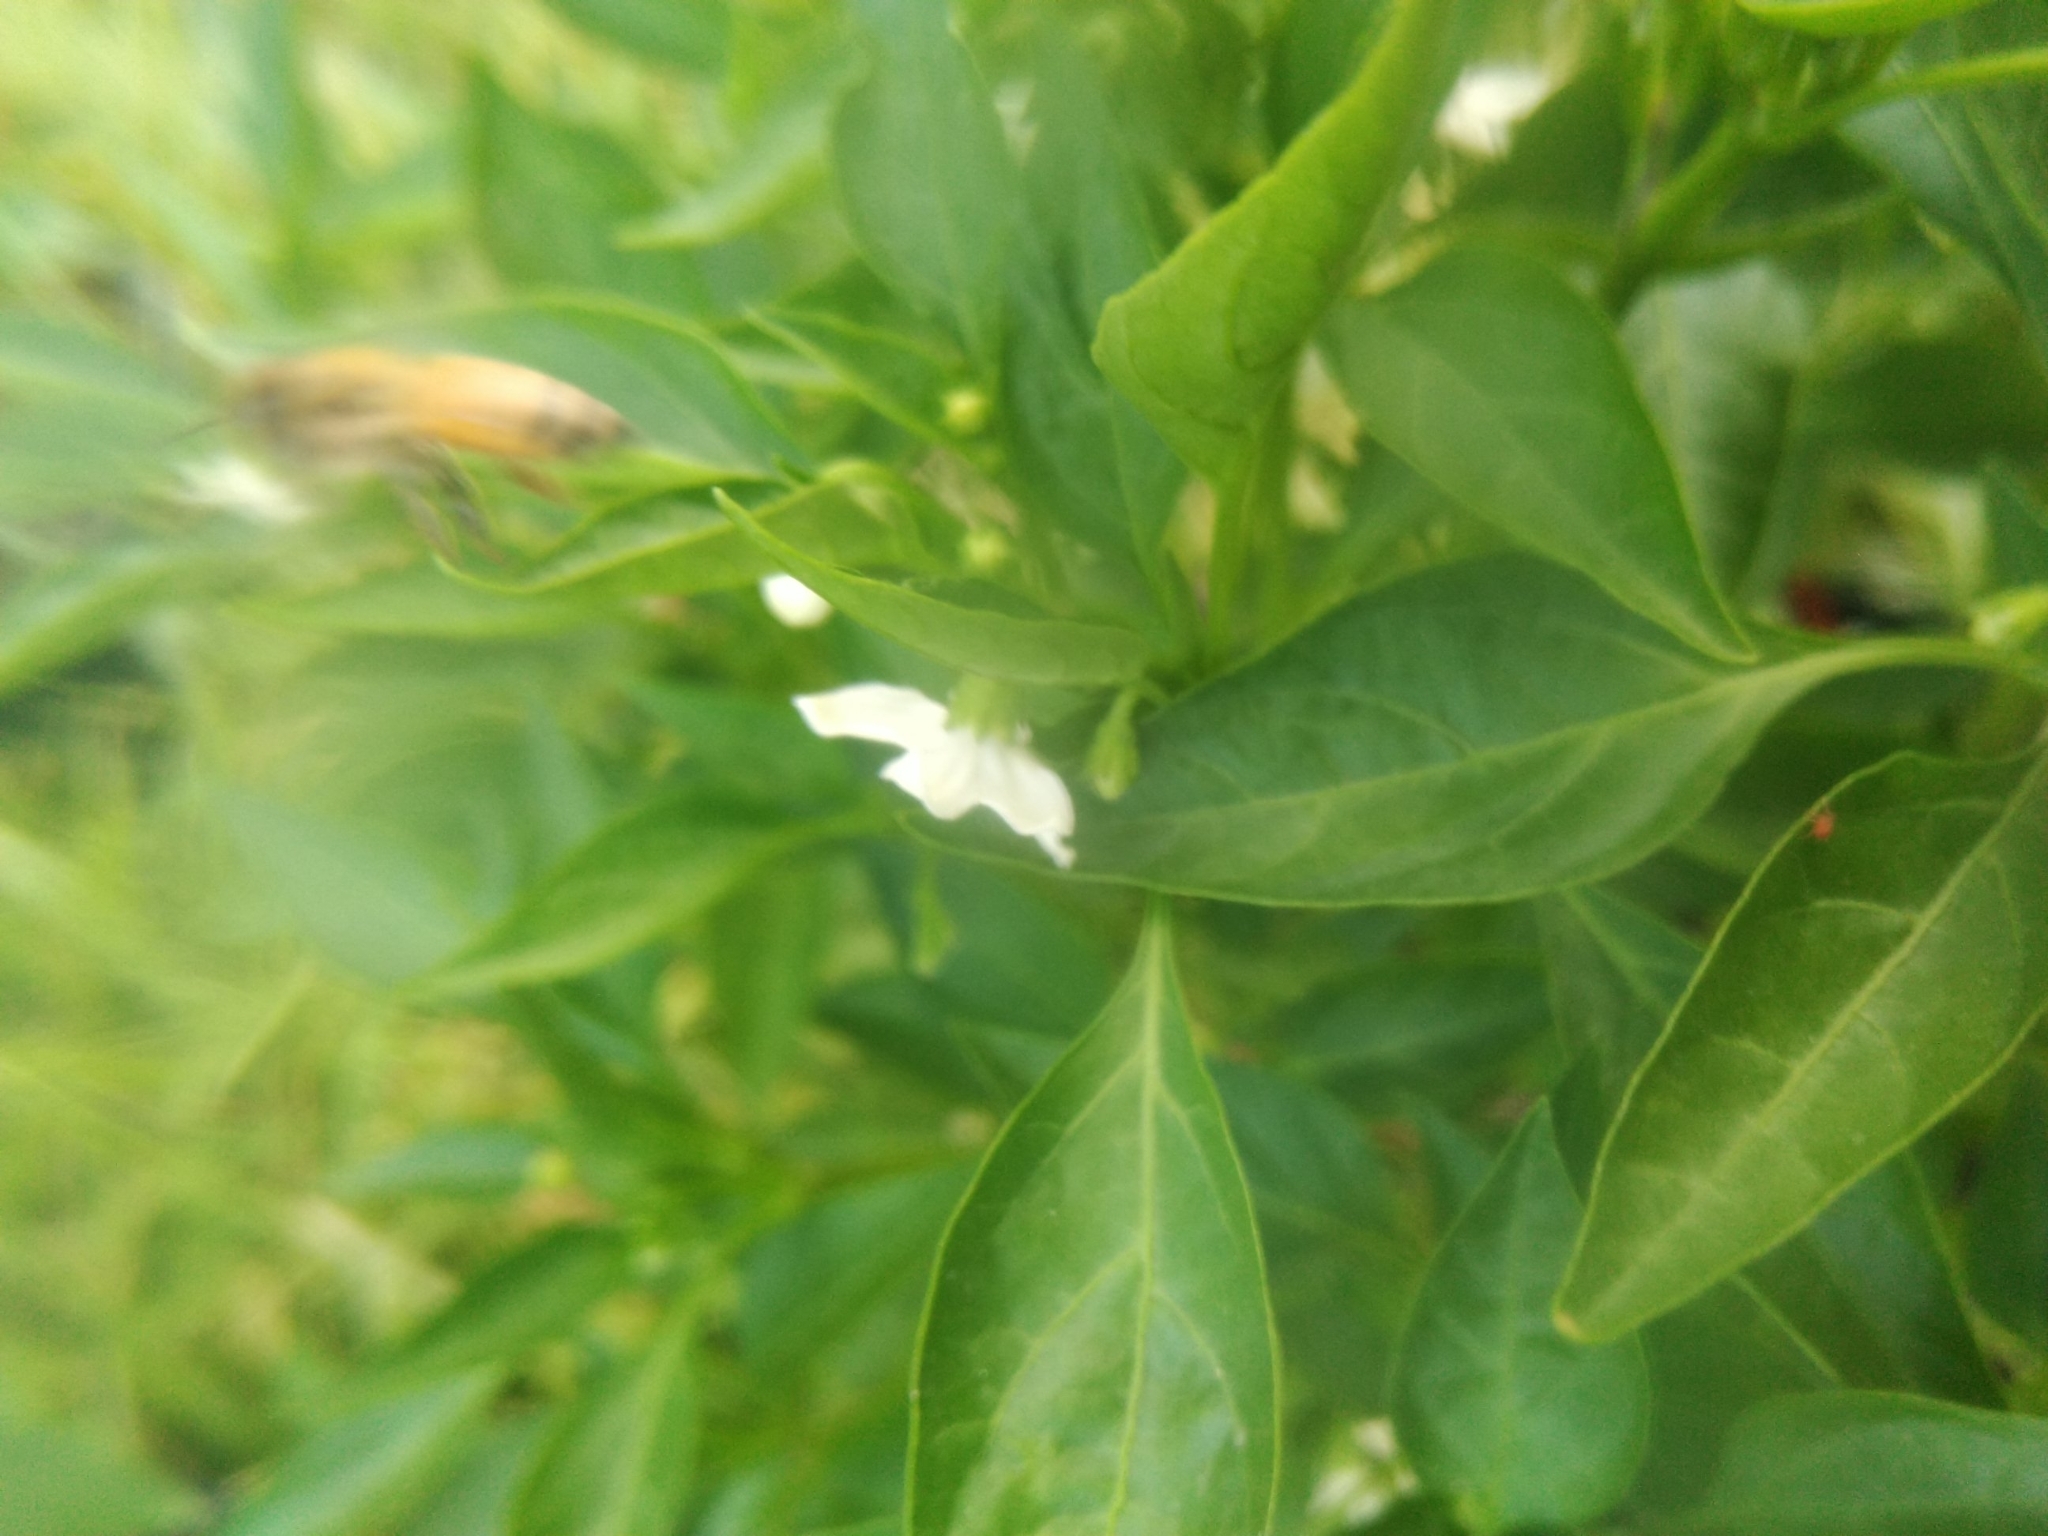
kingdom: Animalia
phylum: Arthropoda
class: Insecta
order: Hymenoptera
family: Apidae
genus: Apis
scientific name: Apis mellifera
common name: Honey bee
